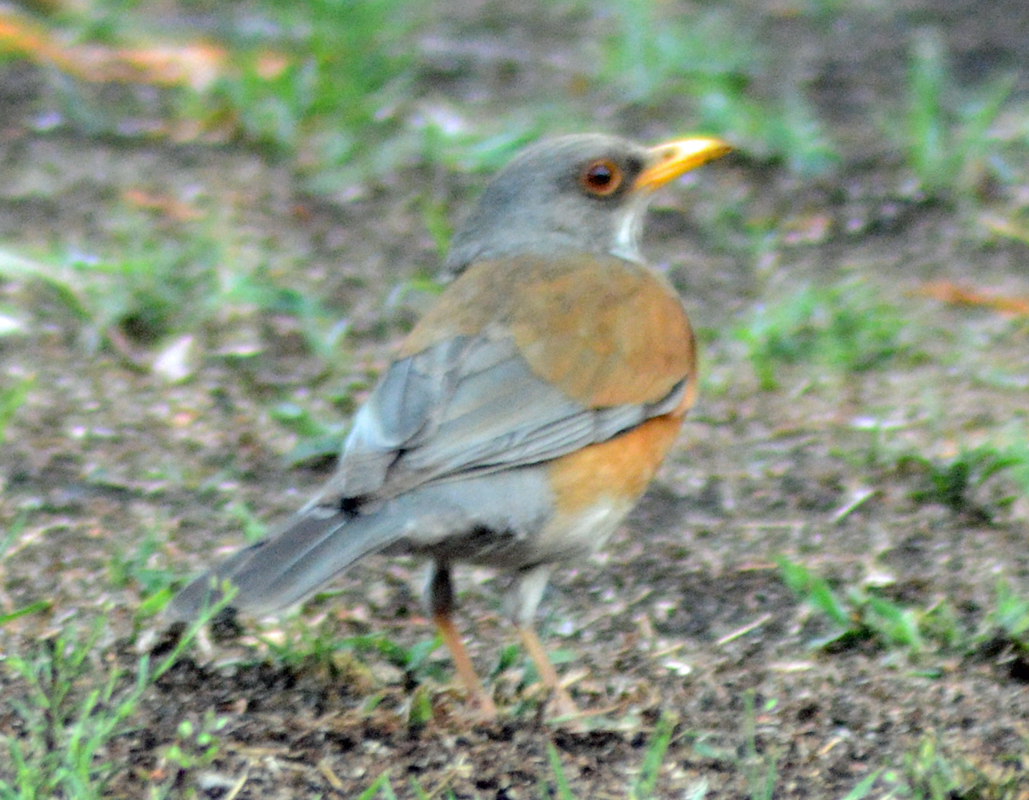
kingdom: Animalia
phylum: Chordata
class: Aves
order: Passeriformes
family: Turdidae
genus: Turdus
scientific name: Turdus rufopalliatus
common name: Rufous-backed robin
